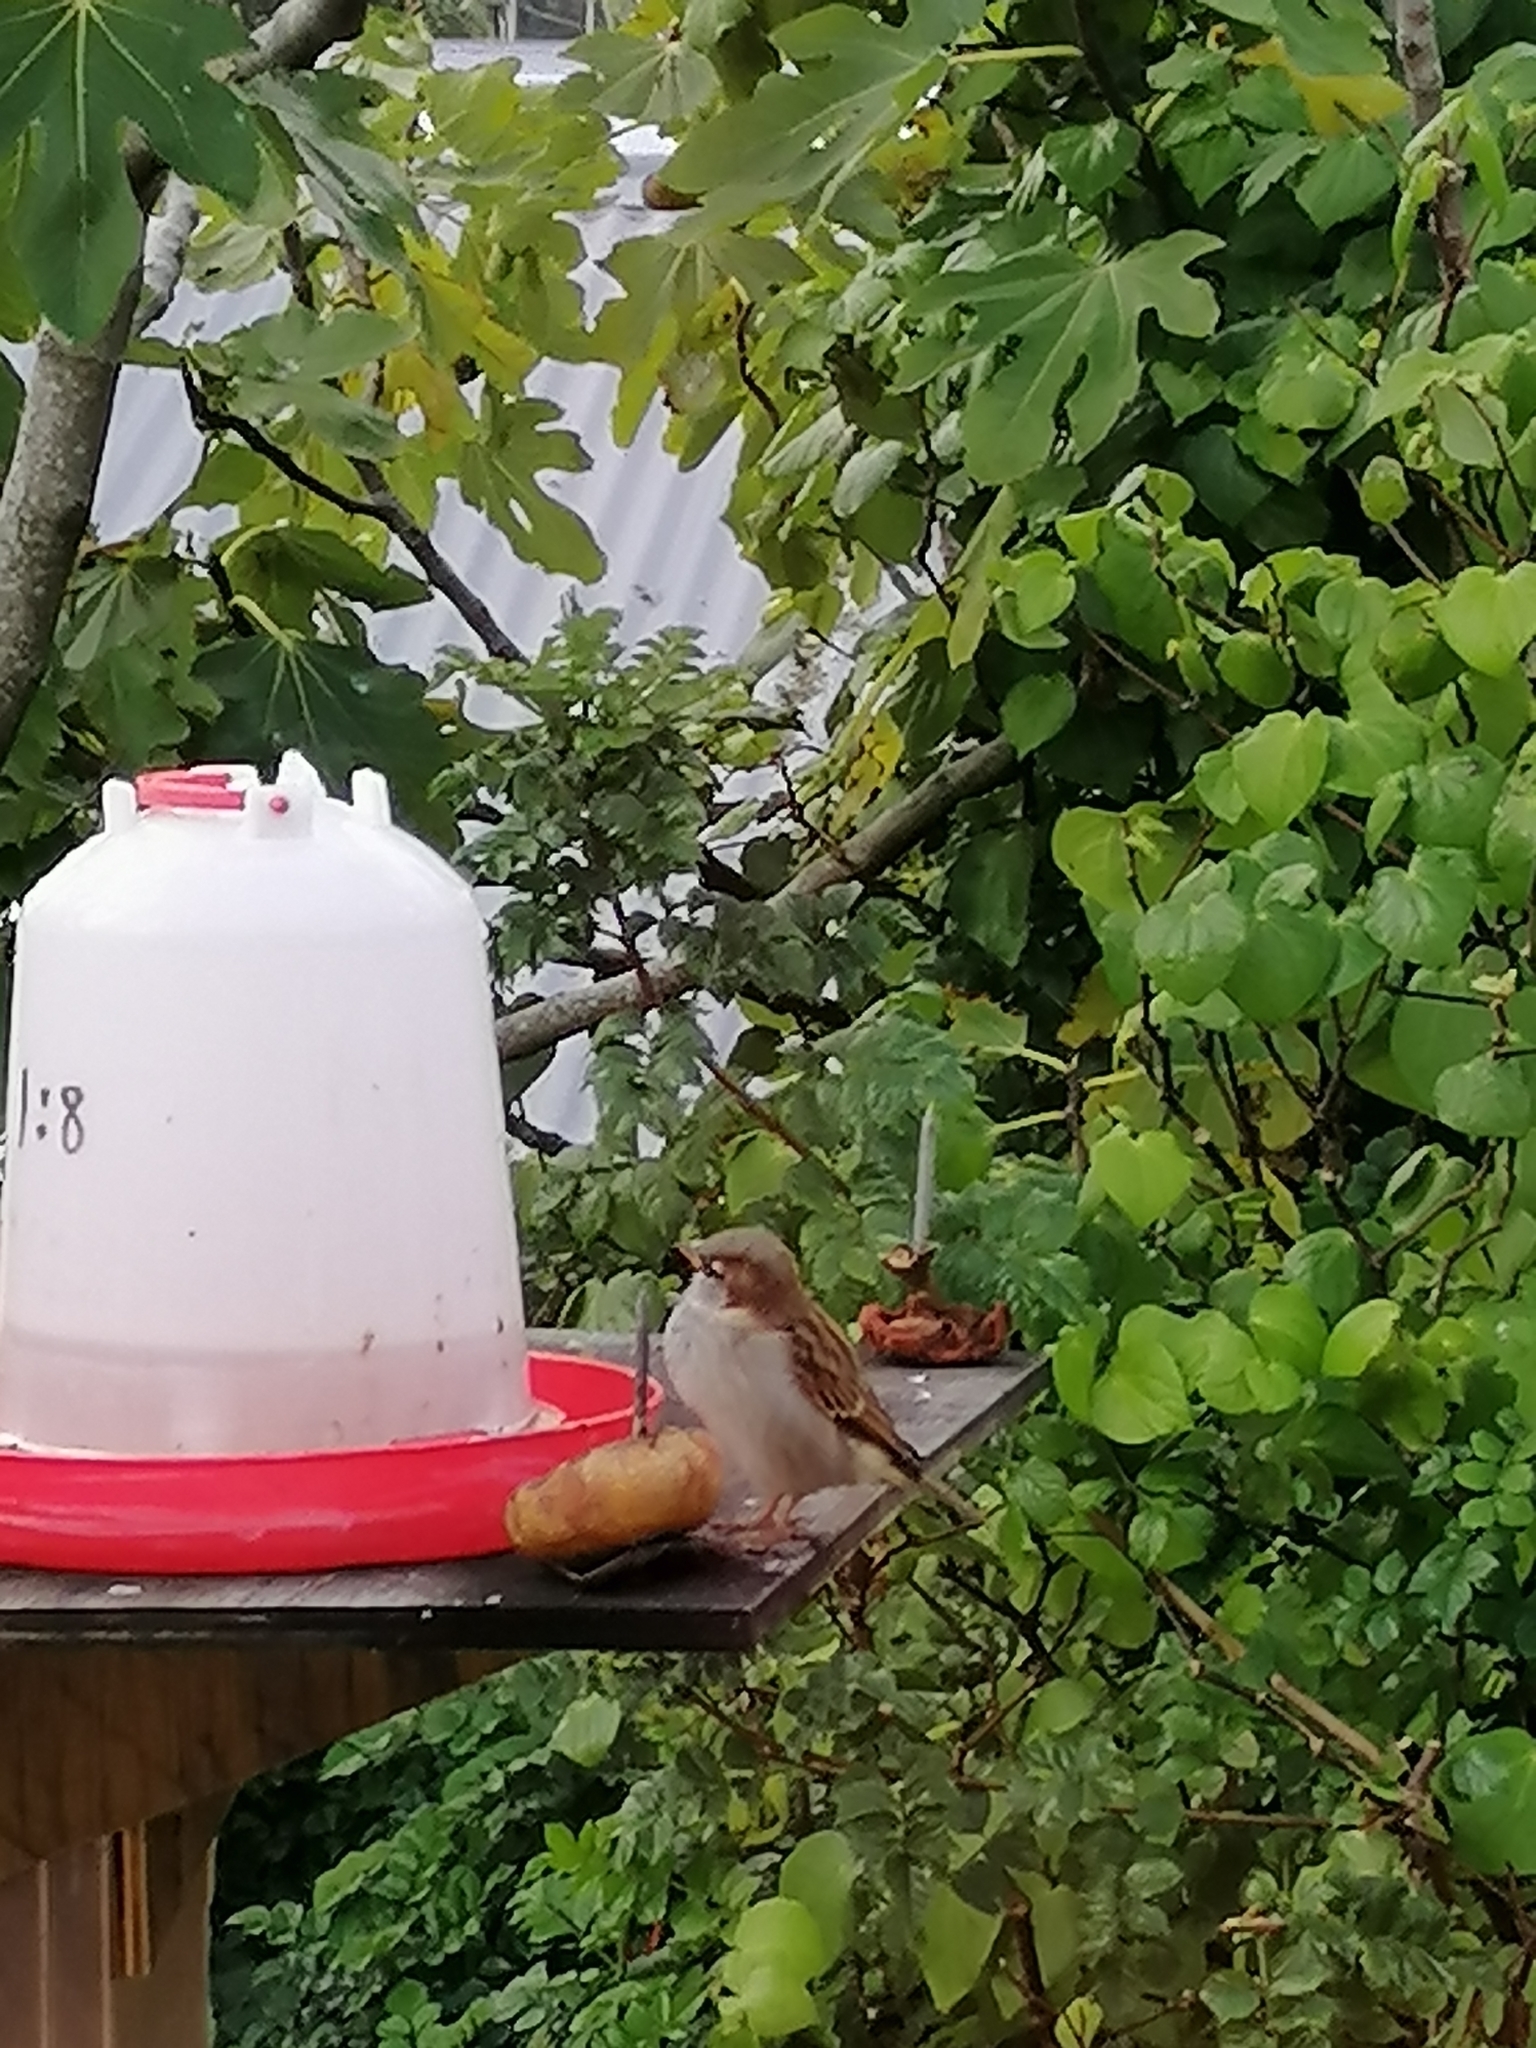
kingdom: Animalia
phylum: Chordata
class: Aves
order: Passeriformes
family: Passeridae
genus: Passer
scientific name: Passer domesticus
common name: House sparrow
